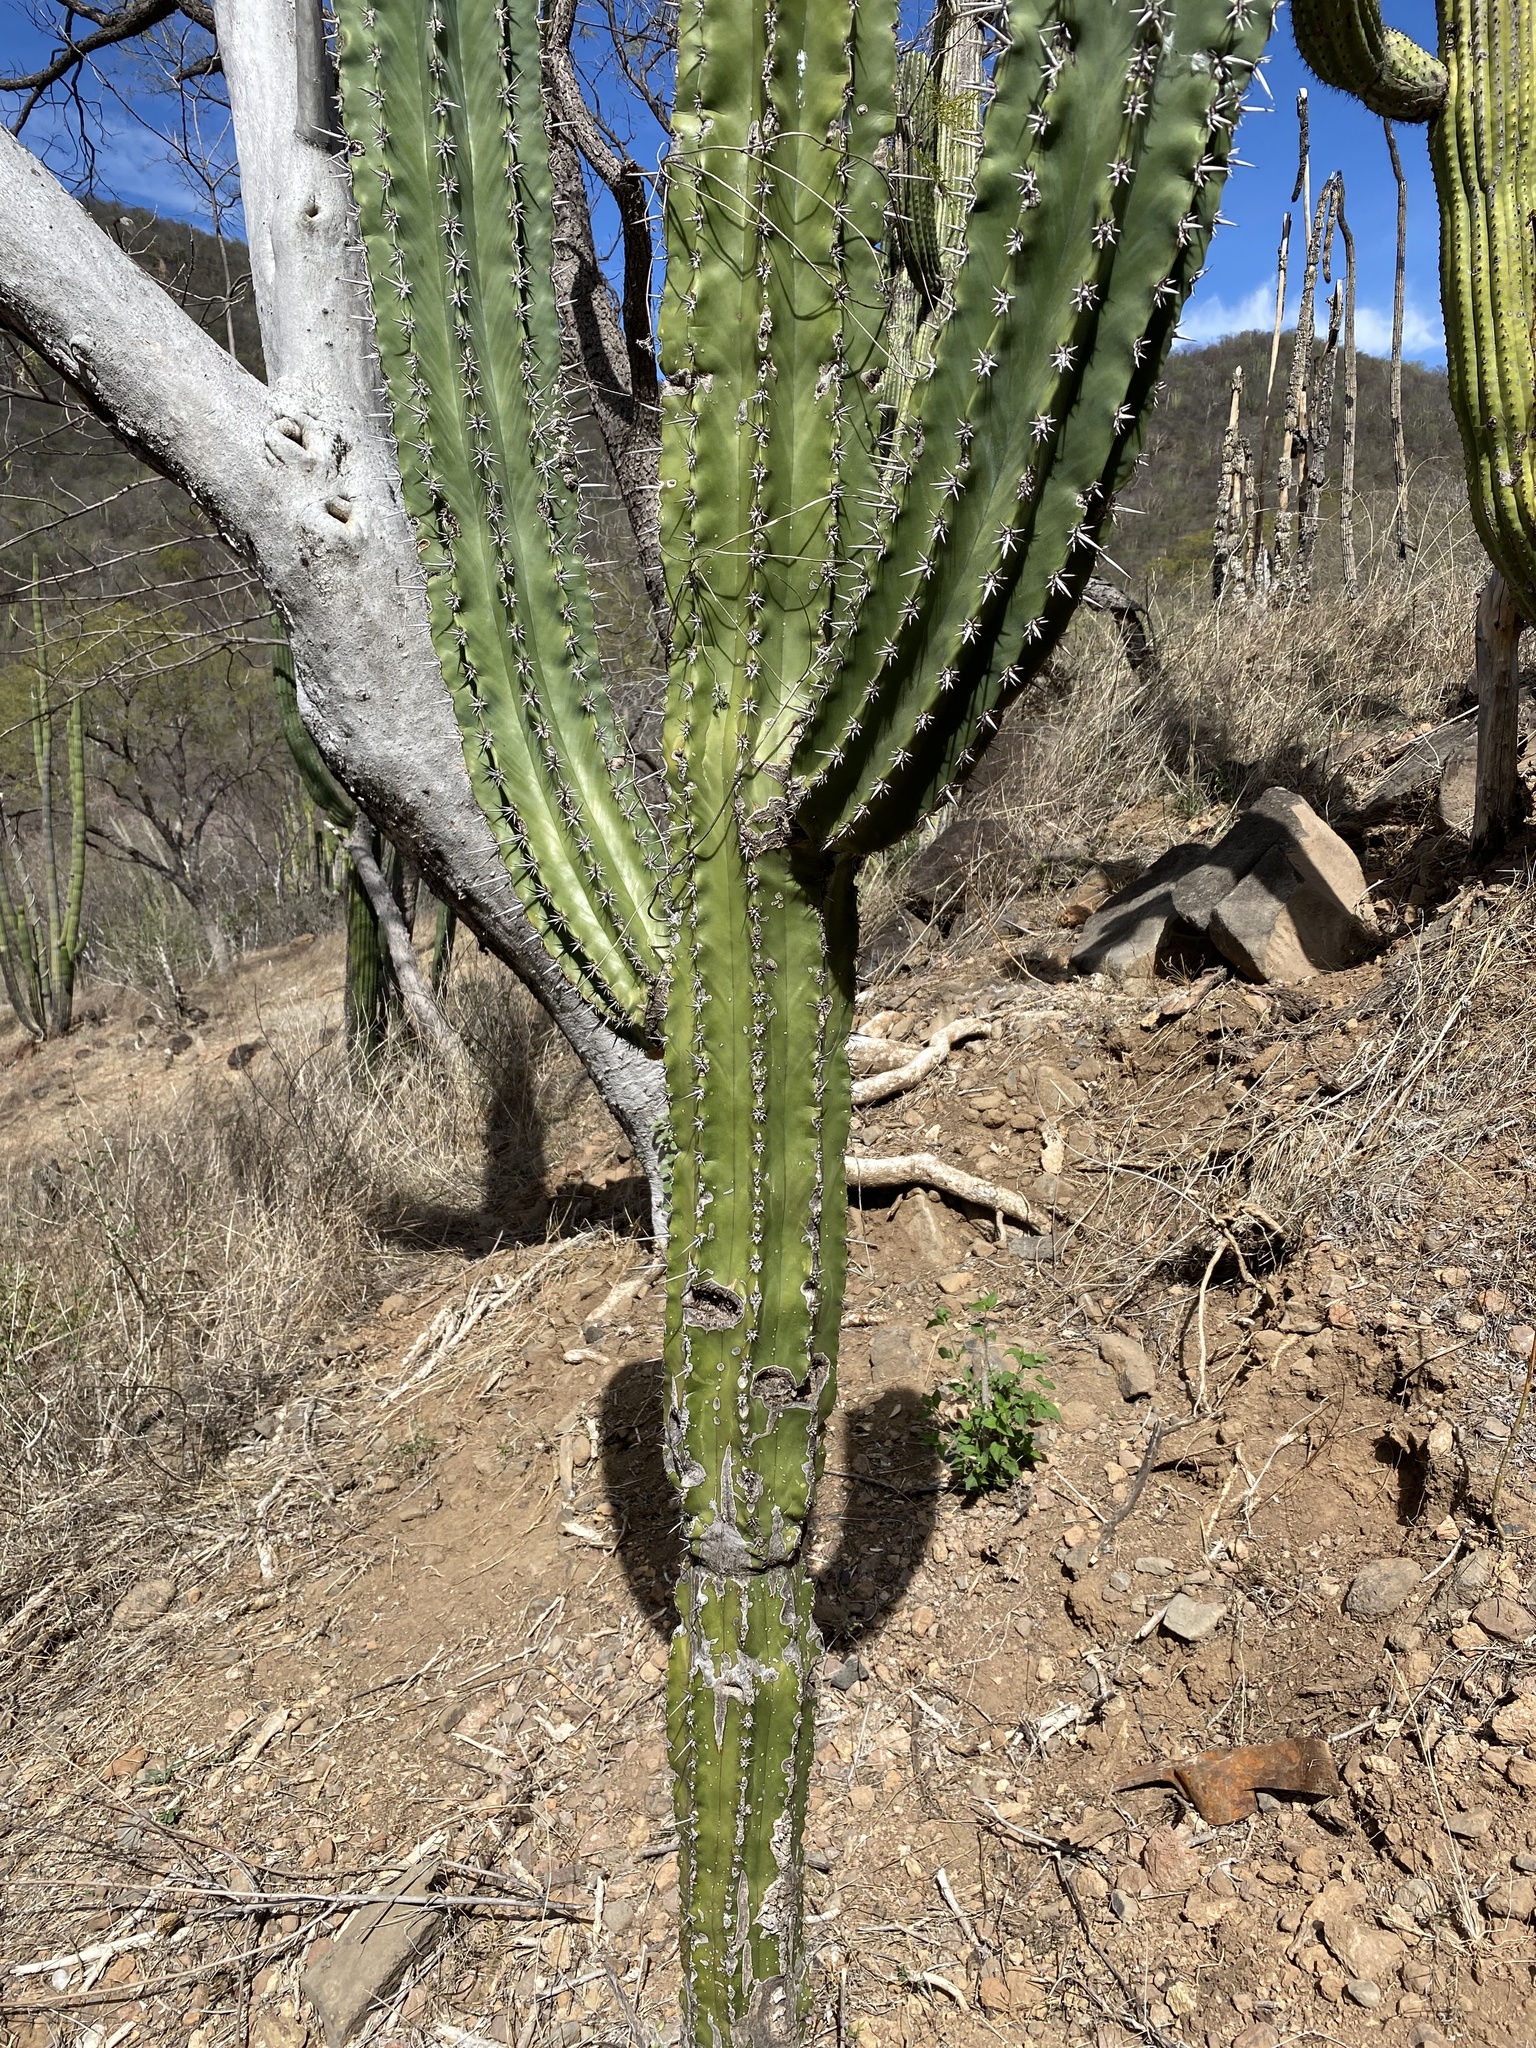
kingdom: Plantae
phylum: Tracheophyta
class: Magnoliopsida
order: Caryophyllales
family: Cactaceae
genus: Pachycereus
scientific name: Pachycereus pecten-aboriginum
